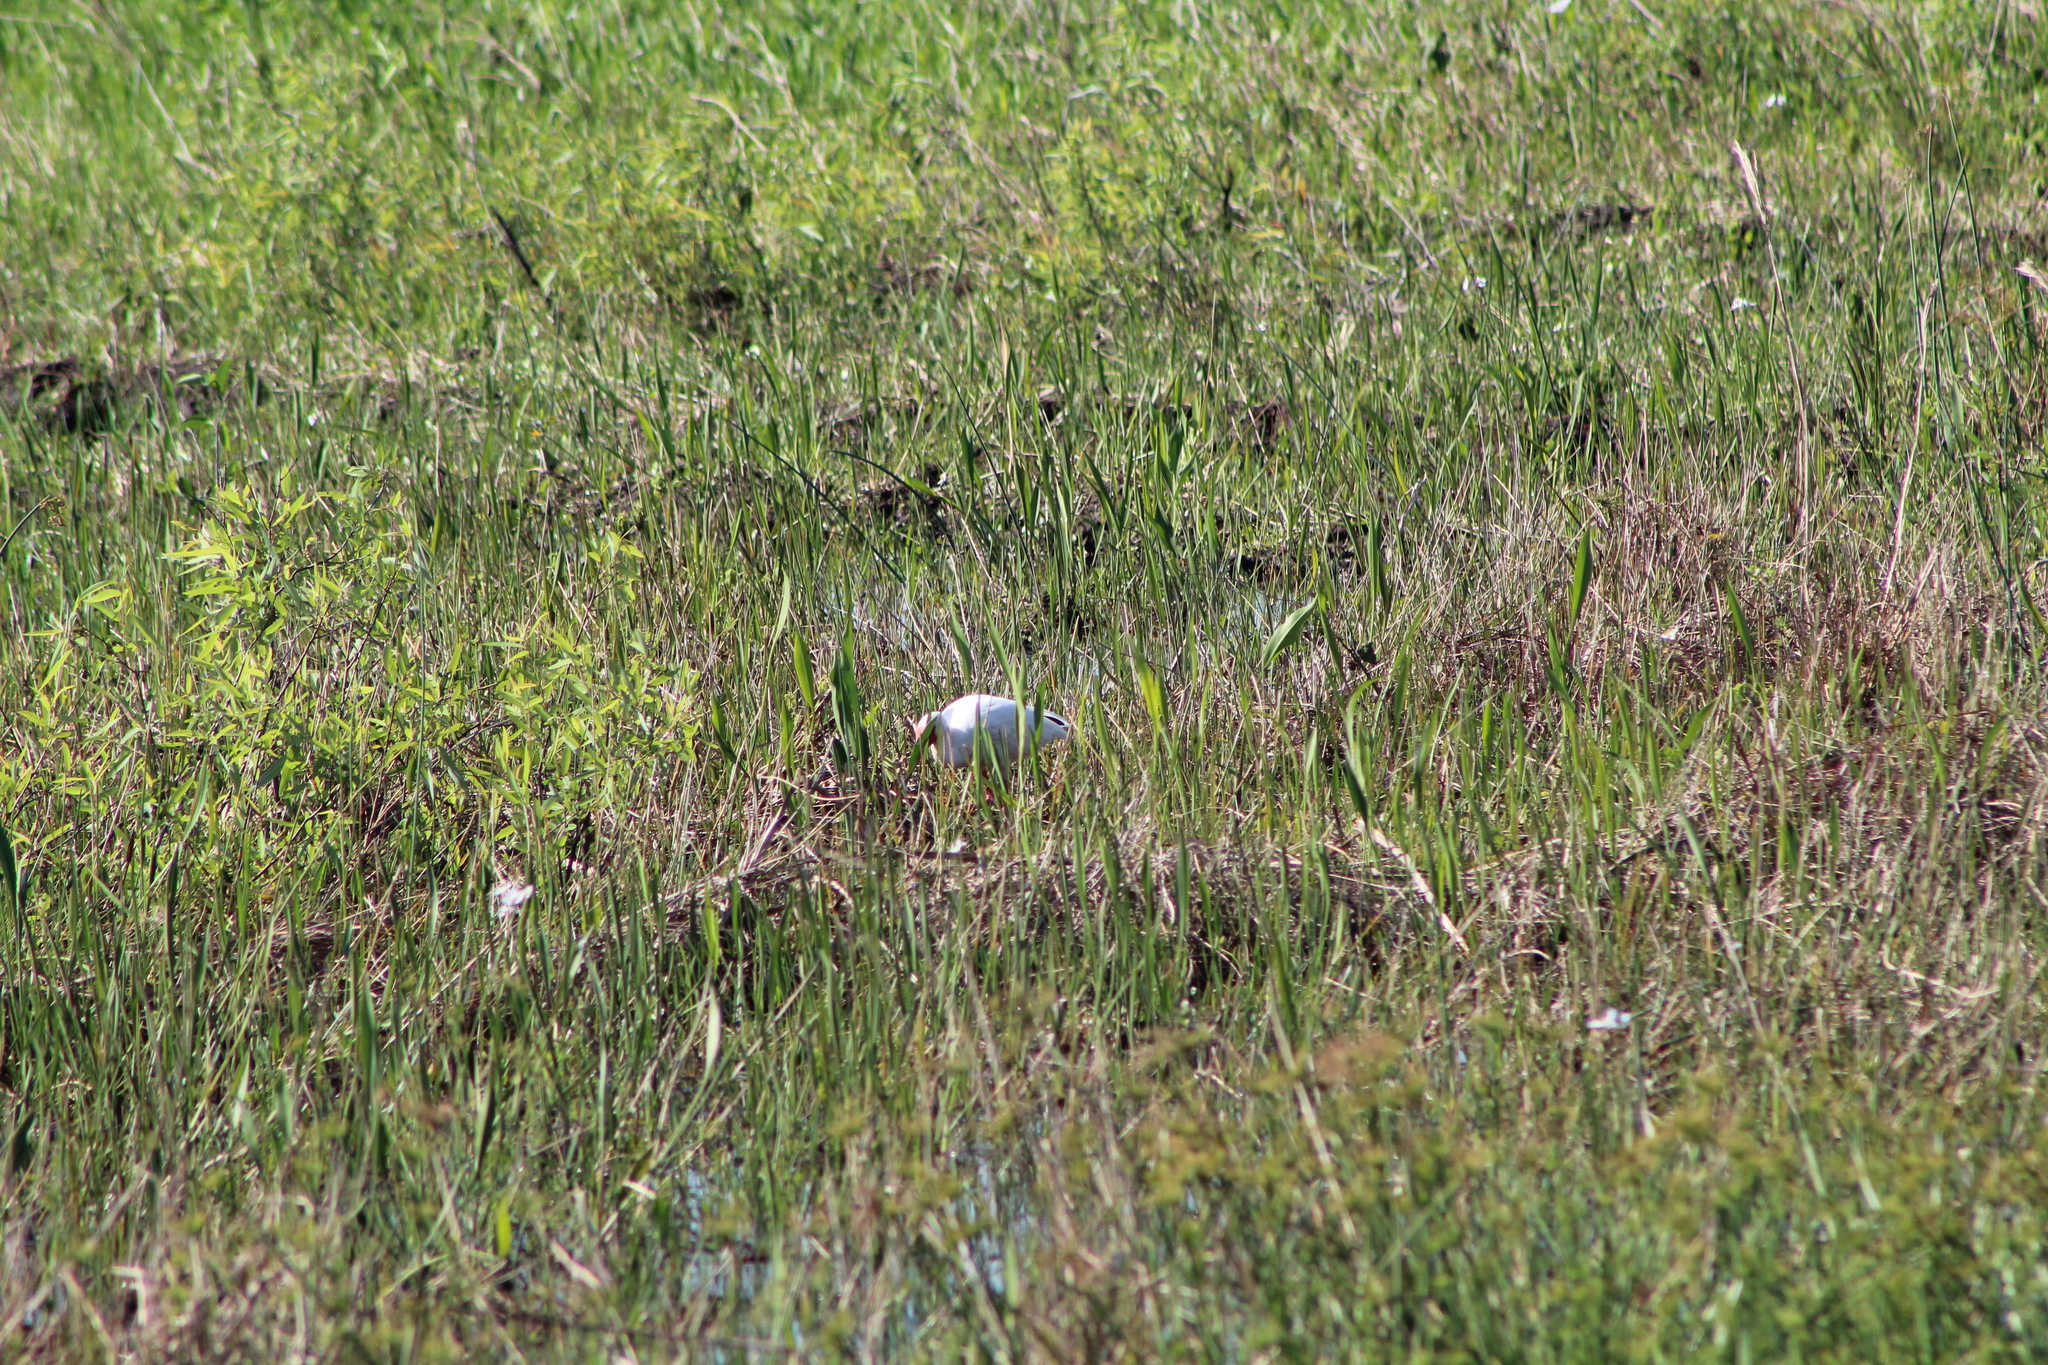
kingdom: Animalia
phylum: Chordata
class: Aves
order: Pelecaniformes
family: Threskiornithidae
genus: Eudocimus
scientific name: Eudocimus albus
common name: White ibis
